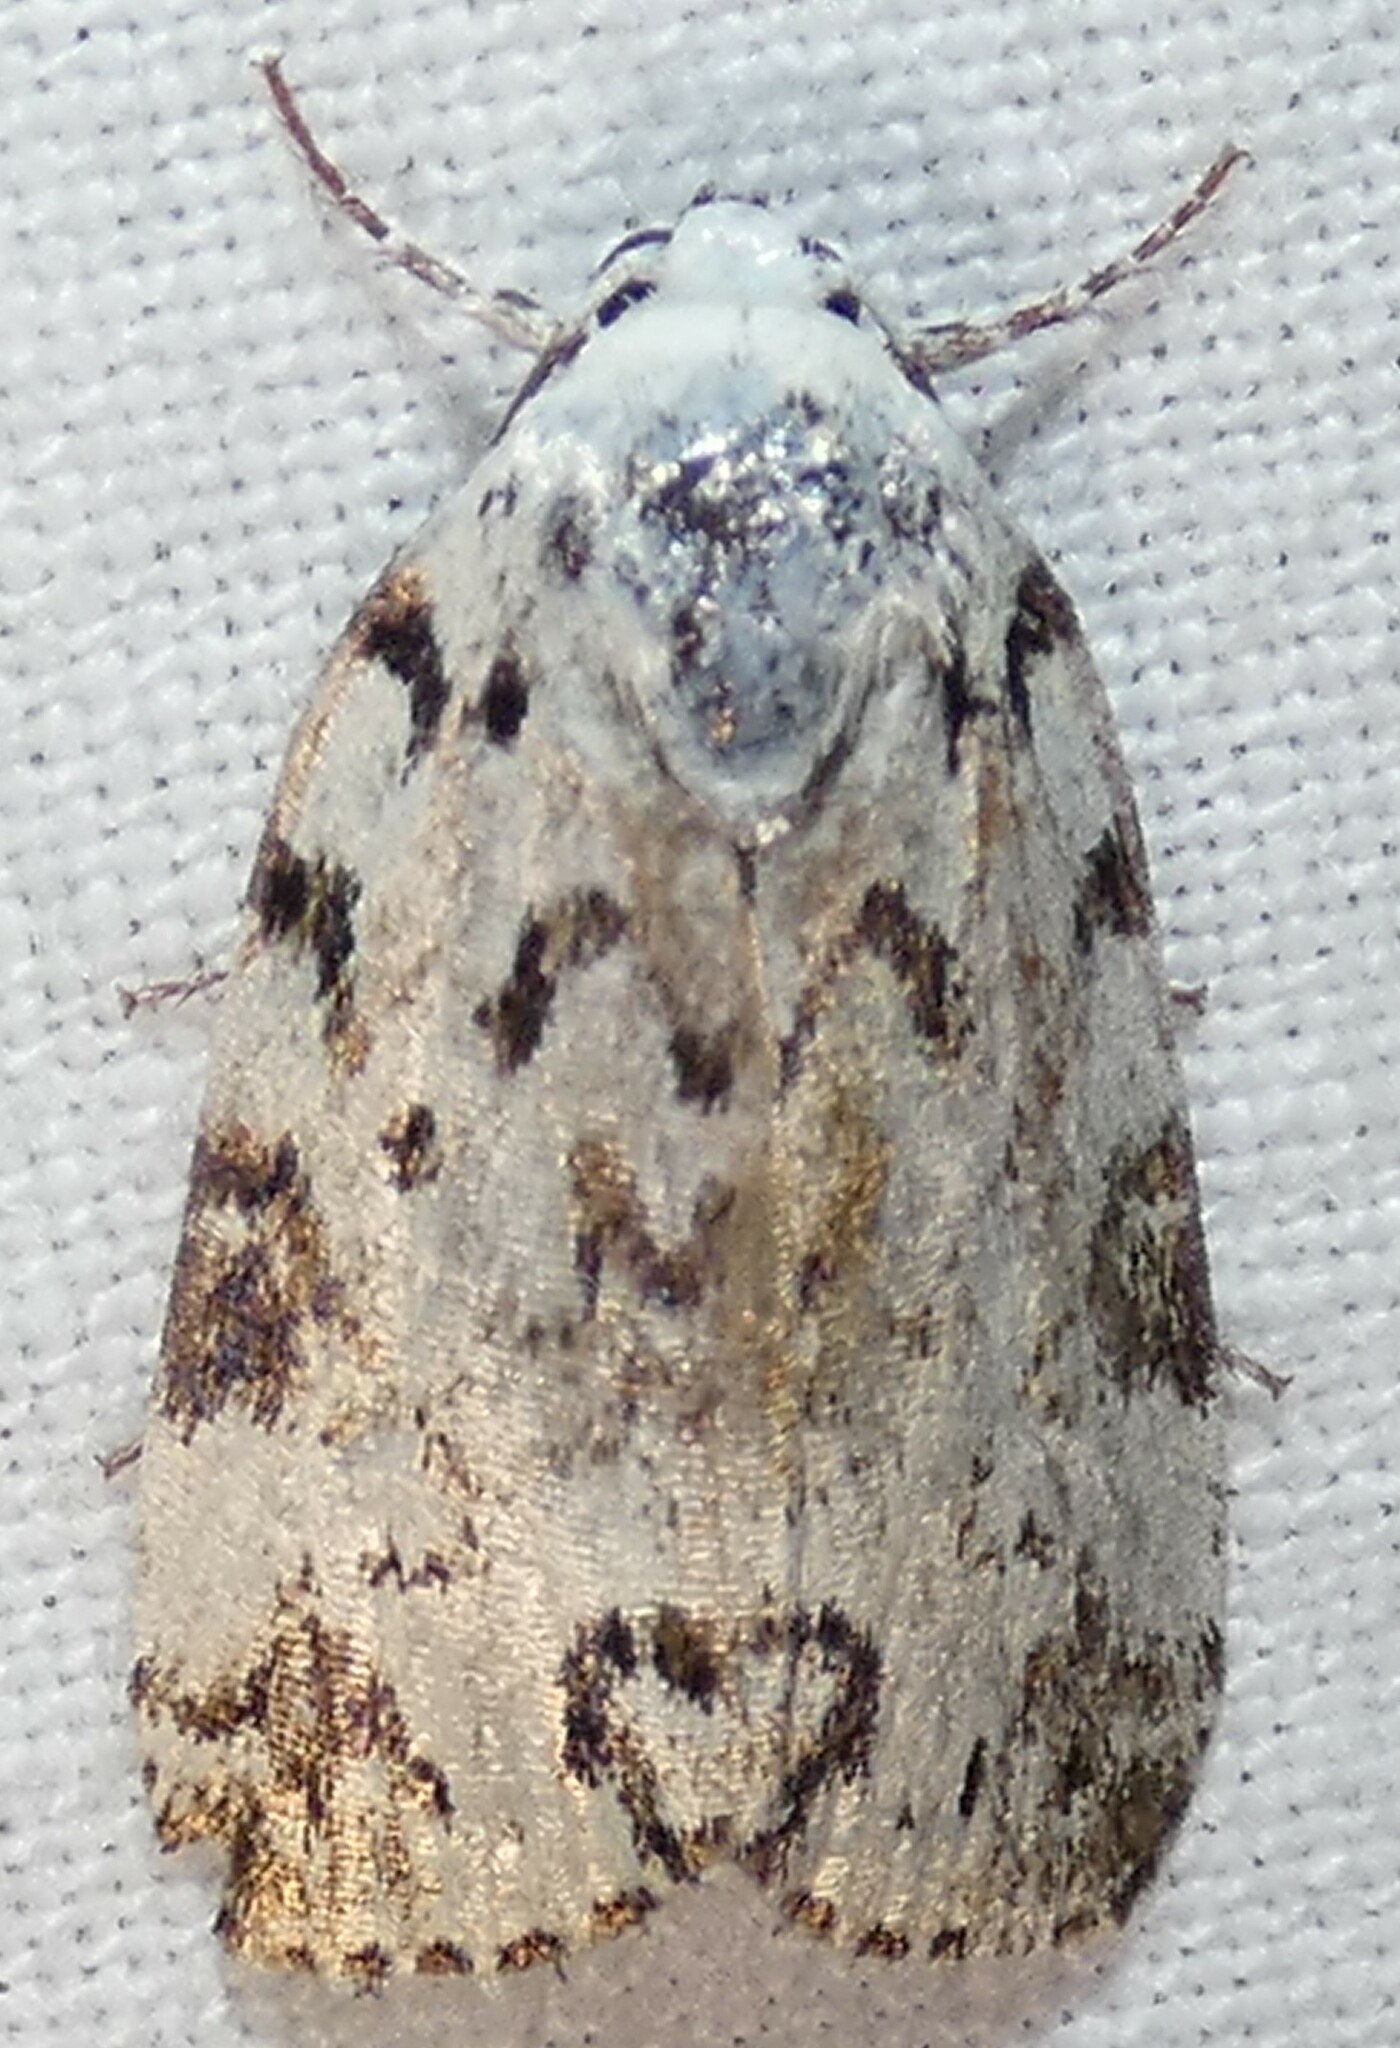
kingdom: Animalia
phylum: Arthropoda
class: Insecta
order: Lepidoptera
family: Noctuidae
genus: Polygrammate
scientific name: Polygrammate hebraeicum
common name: Hebrew moth
